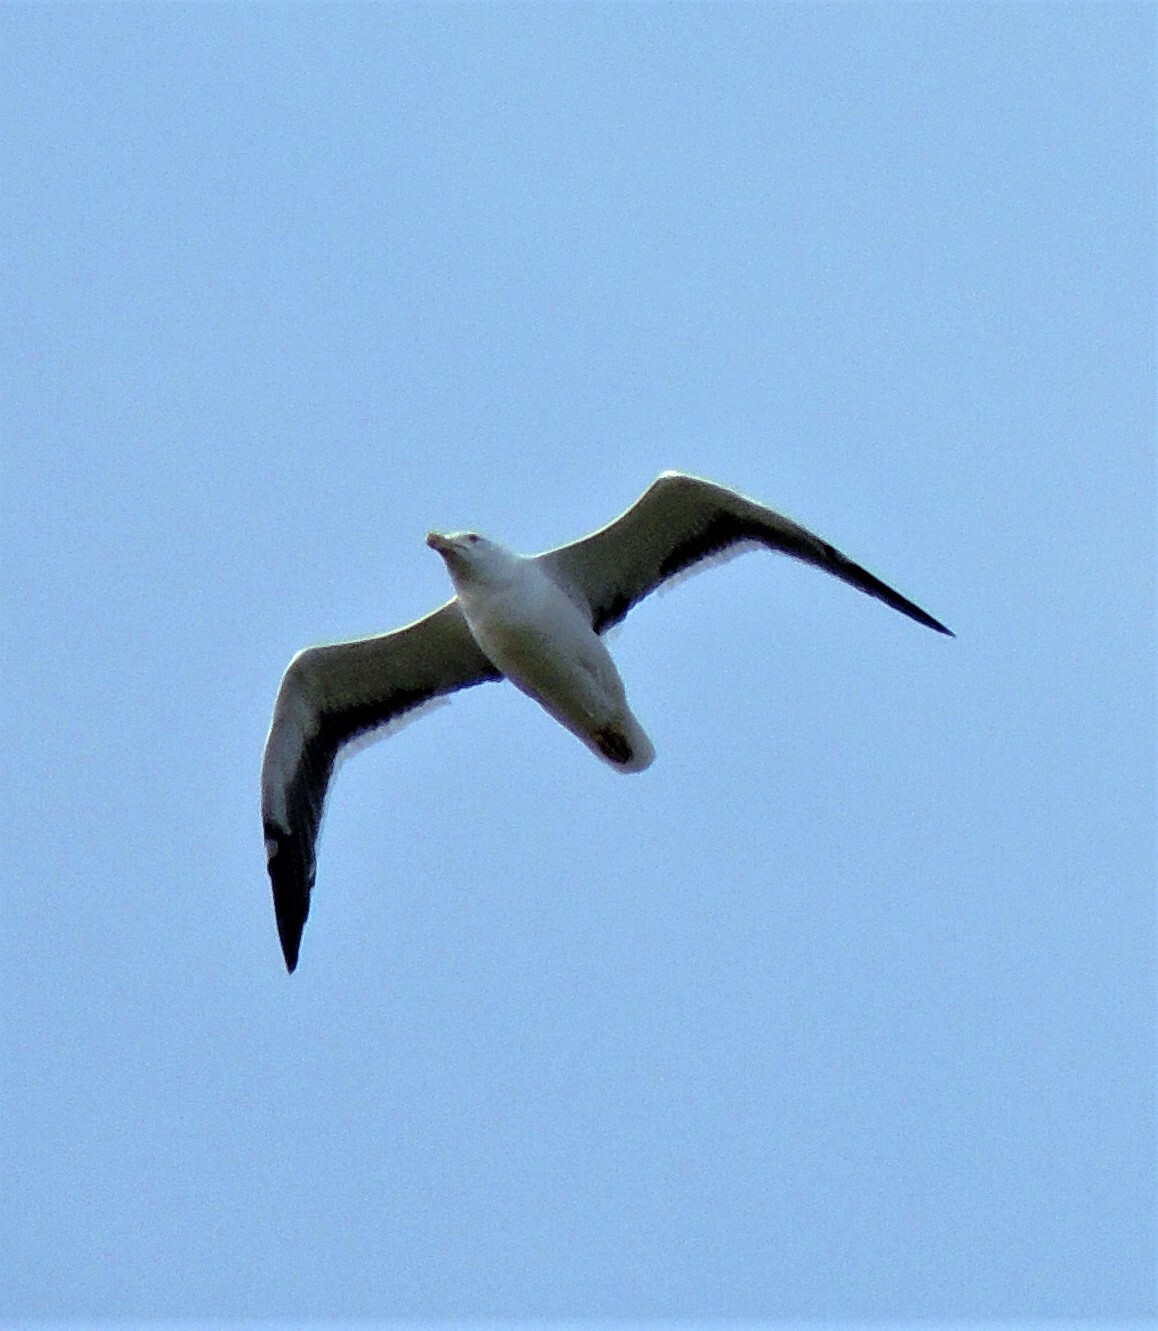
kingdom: Animalia
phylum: Chordata
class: Aves
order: Charadriiformes
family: Laridae
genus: Larus
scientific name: Larus dominicanus
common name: Kelp gull
